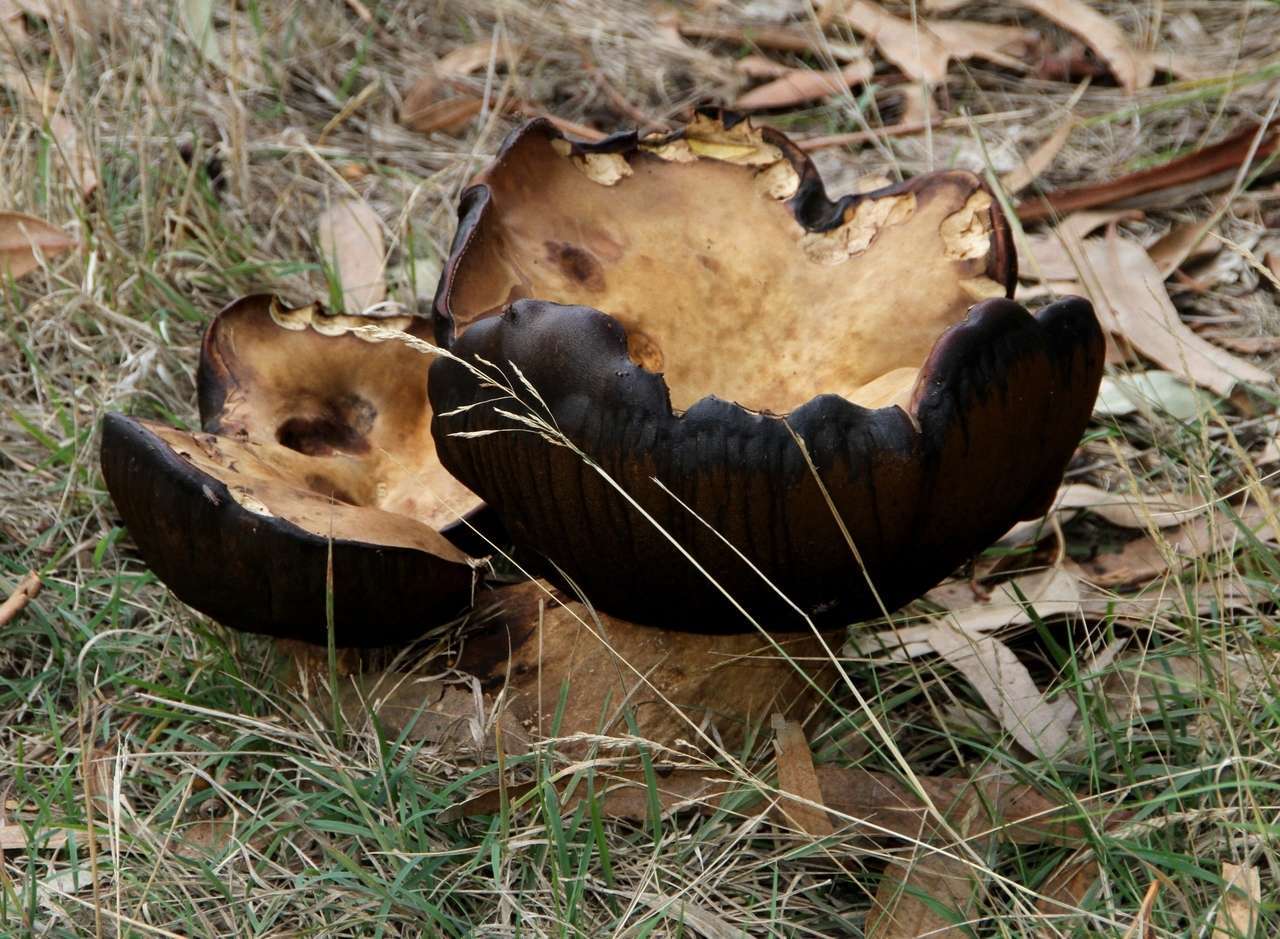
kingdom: Fungi
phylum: Basidiomycota
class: Agaricomycetes
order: Boletales
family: Boletinellaceae
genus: Phlebopus
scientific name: Phlebopus marginatus
